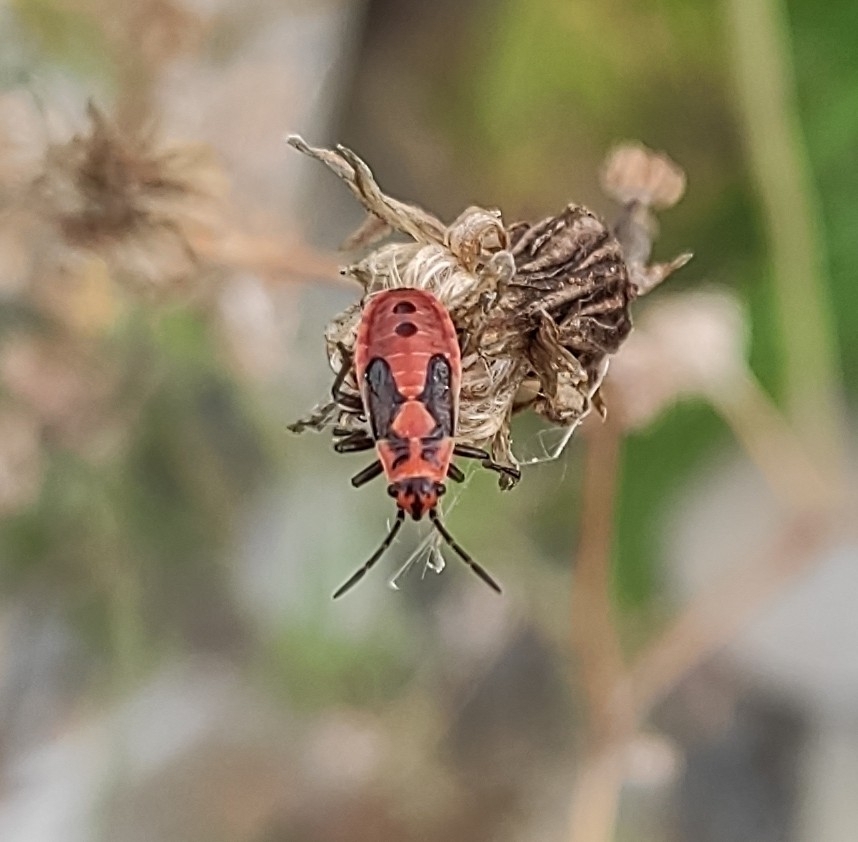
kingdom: Animalia
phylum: Arthropoda
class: Insecta
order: Hemiptera
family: Lygaeidae
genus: Lygaeus
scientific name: Lygaeus equestris
